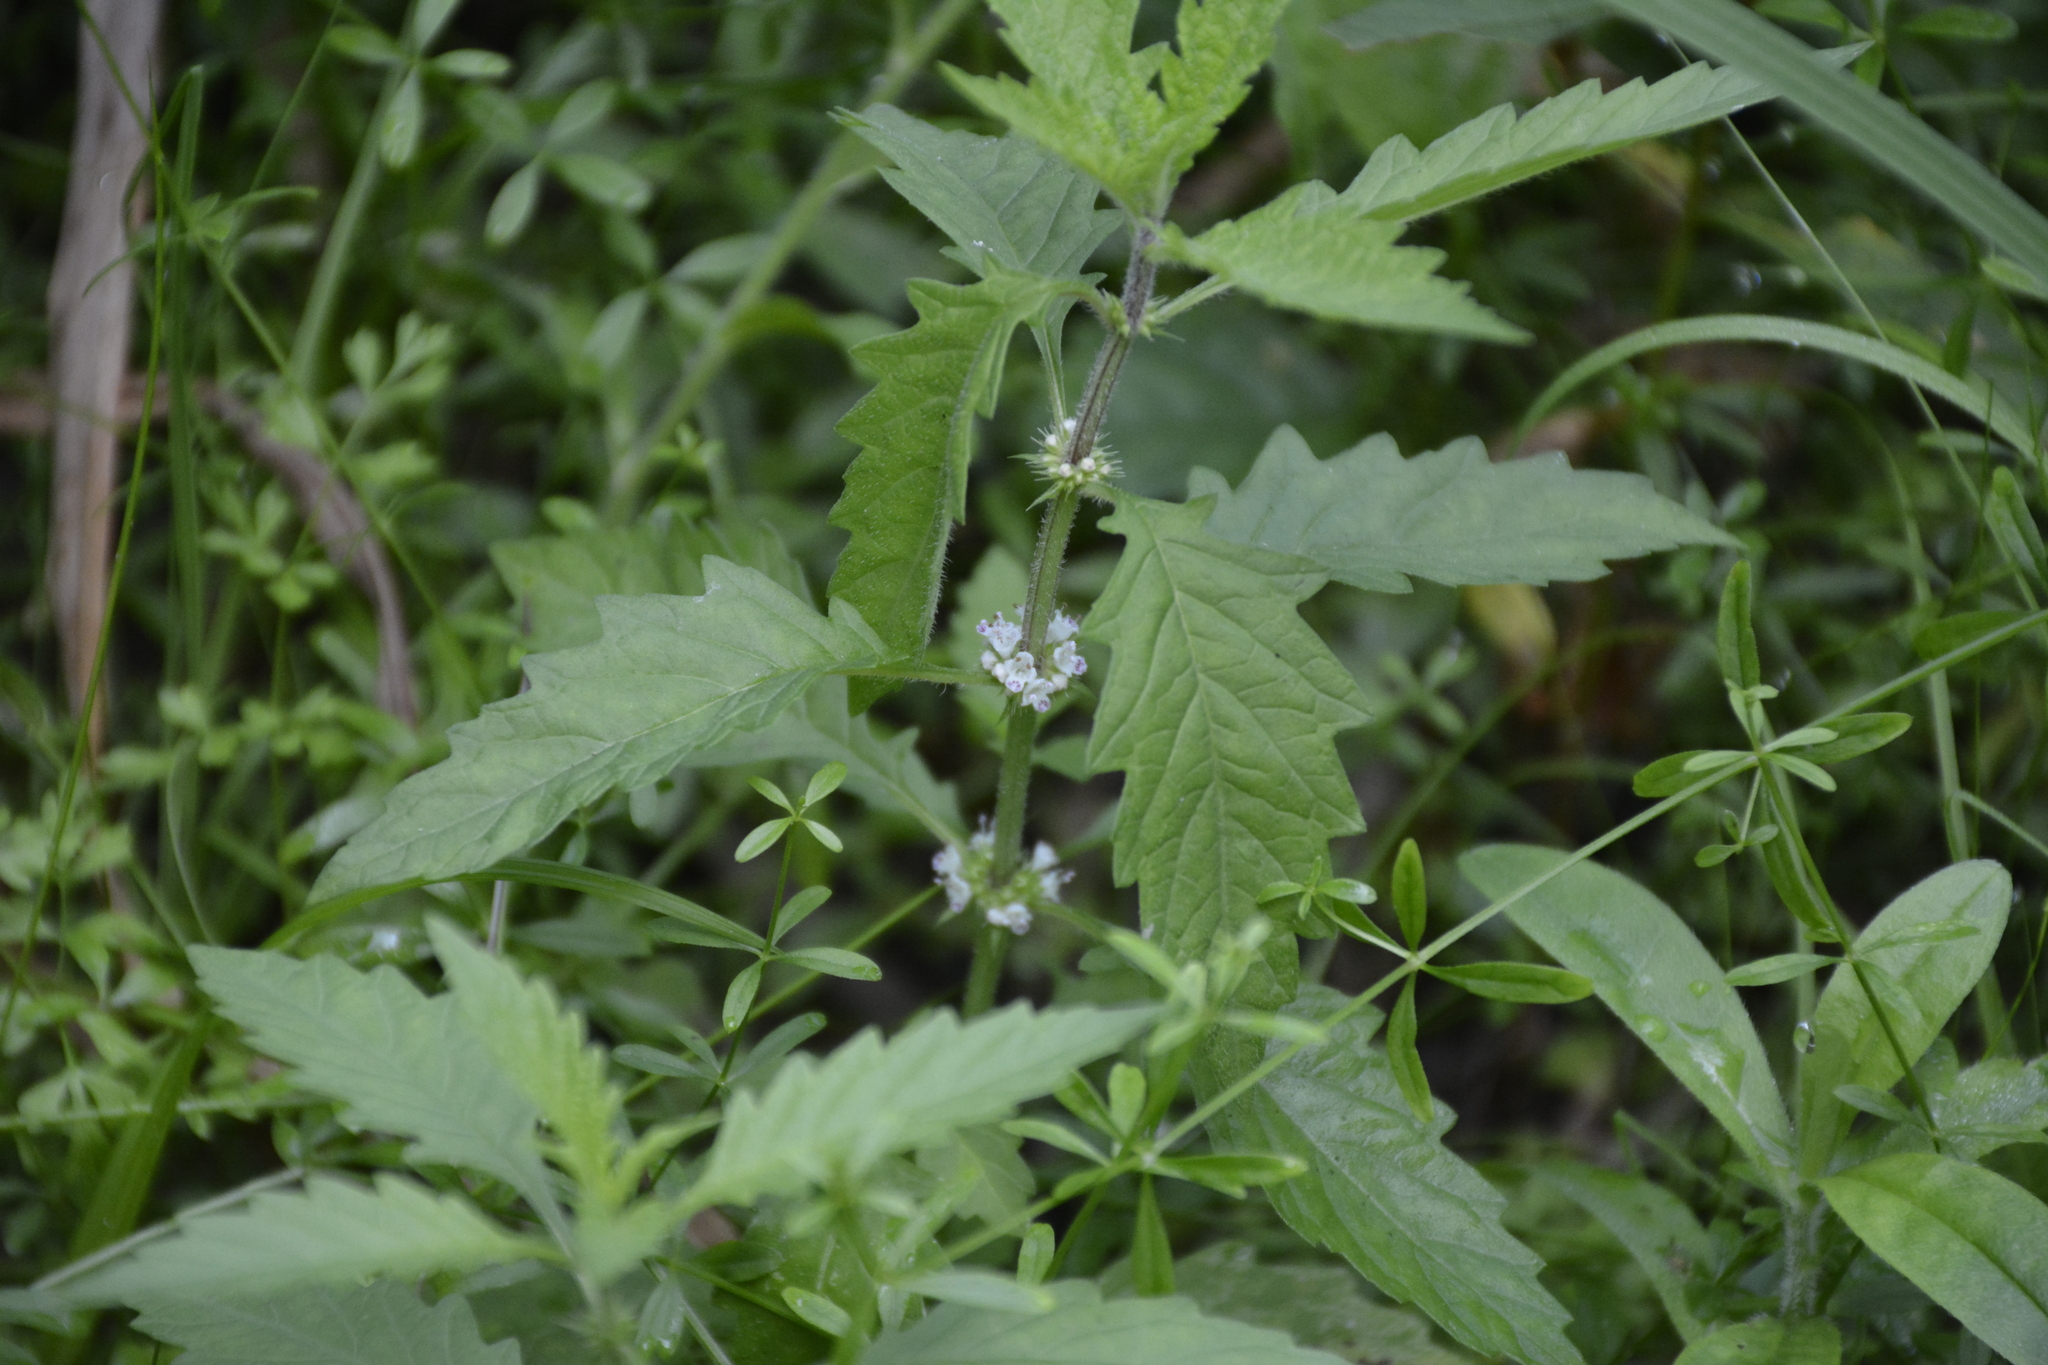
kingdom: Plantae
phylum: Tracheophyta
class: Magnoliopsida
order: Lamiales
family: Lamiaceae
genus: Lycopus
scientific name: Lycopus europaeus
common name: European bugleweed
